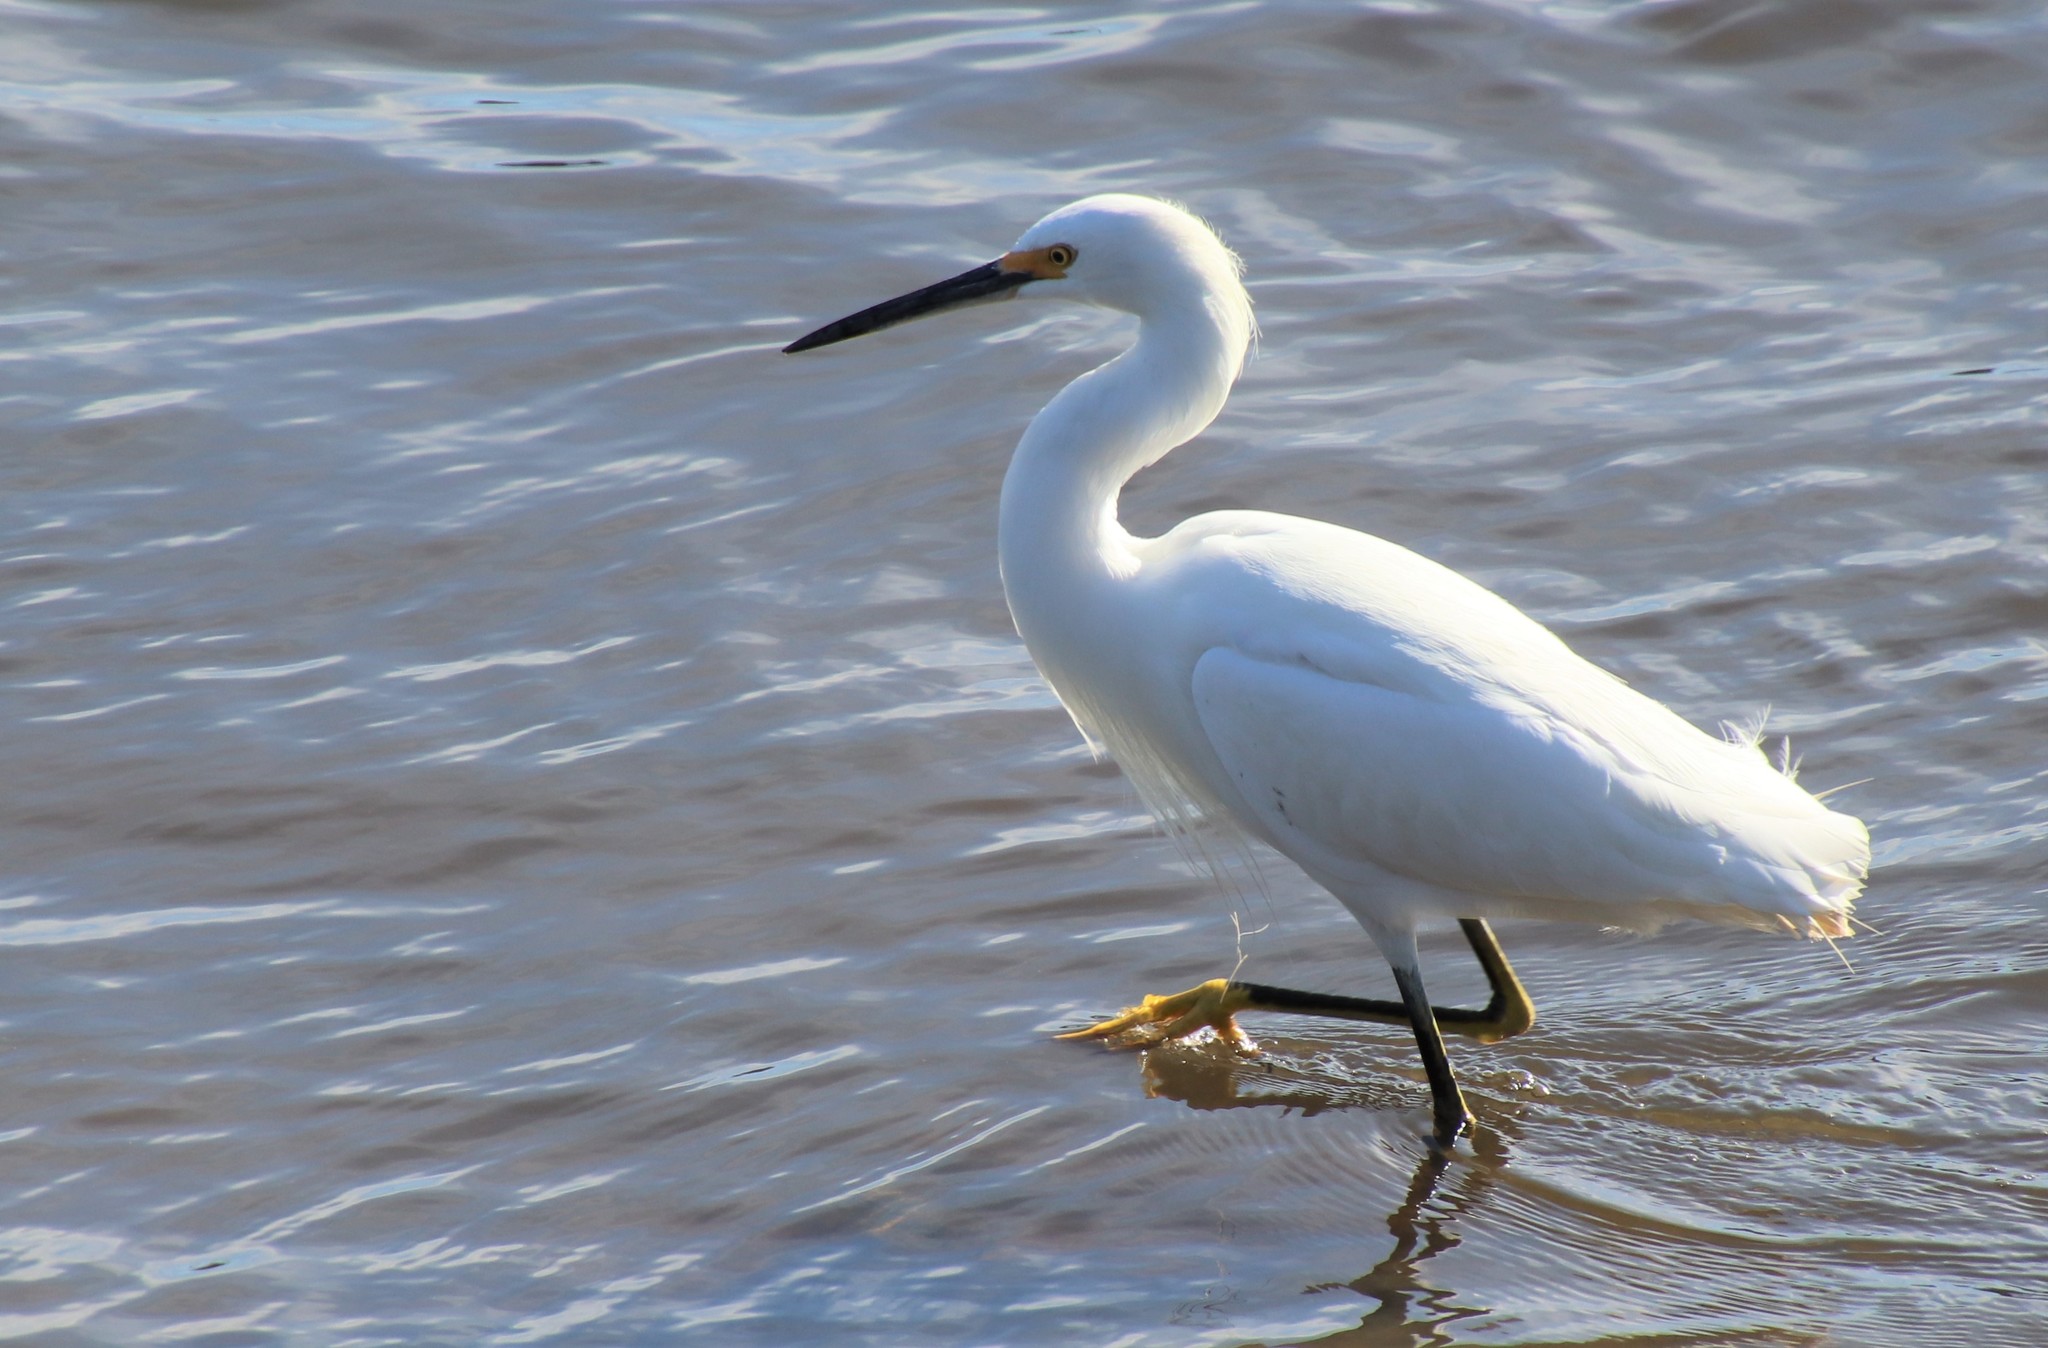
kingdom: Animalia
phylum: Chordata
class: Aves
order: Pelecaniformes
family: Ardeidae
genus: Egretta
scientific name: Egretta thula
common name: Snowy egret
